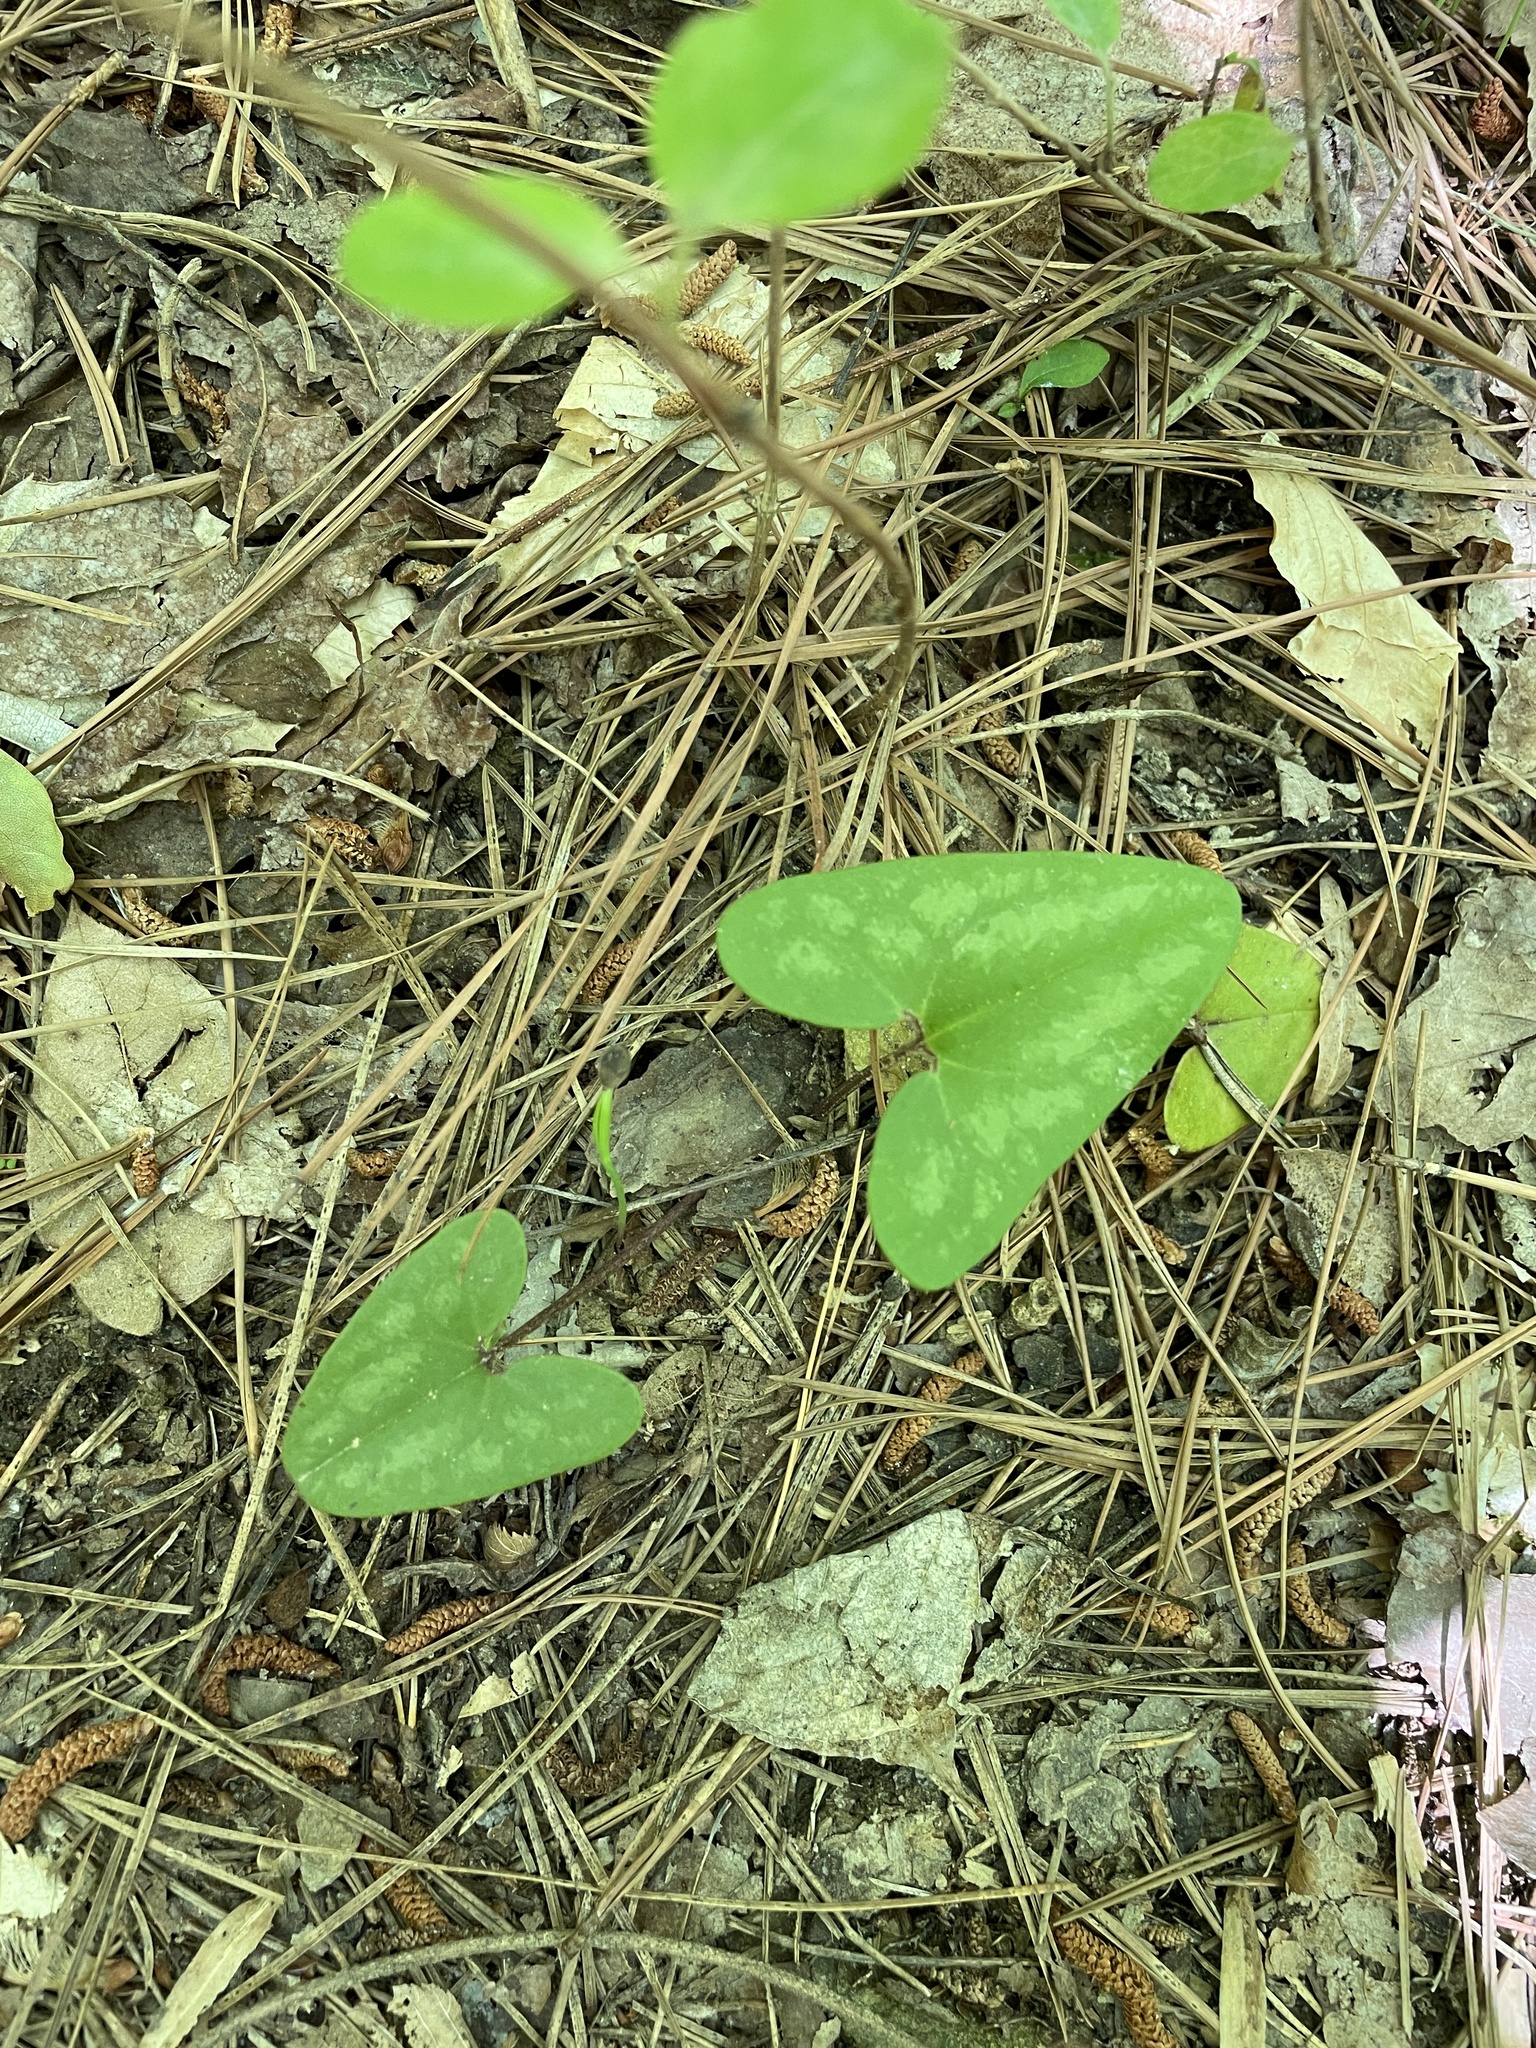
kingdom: Plantae
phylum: Tracheophyta
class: Magnoliopsida
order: Piperales
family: Aristolochiaceae
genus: Hexastylis
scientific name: Hexastylis arifolia
